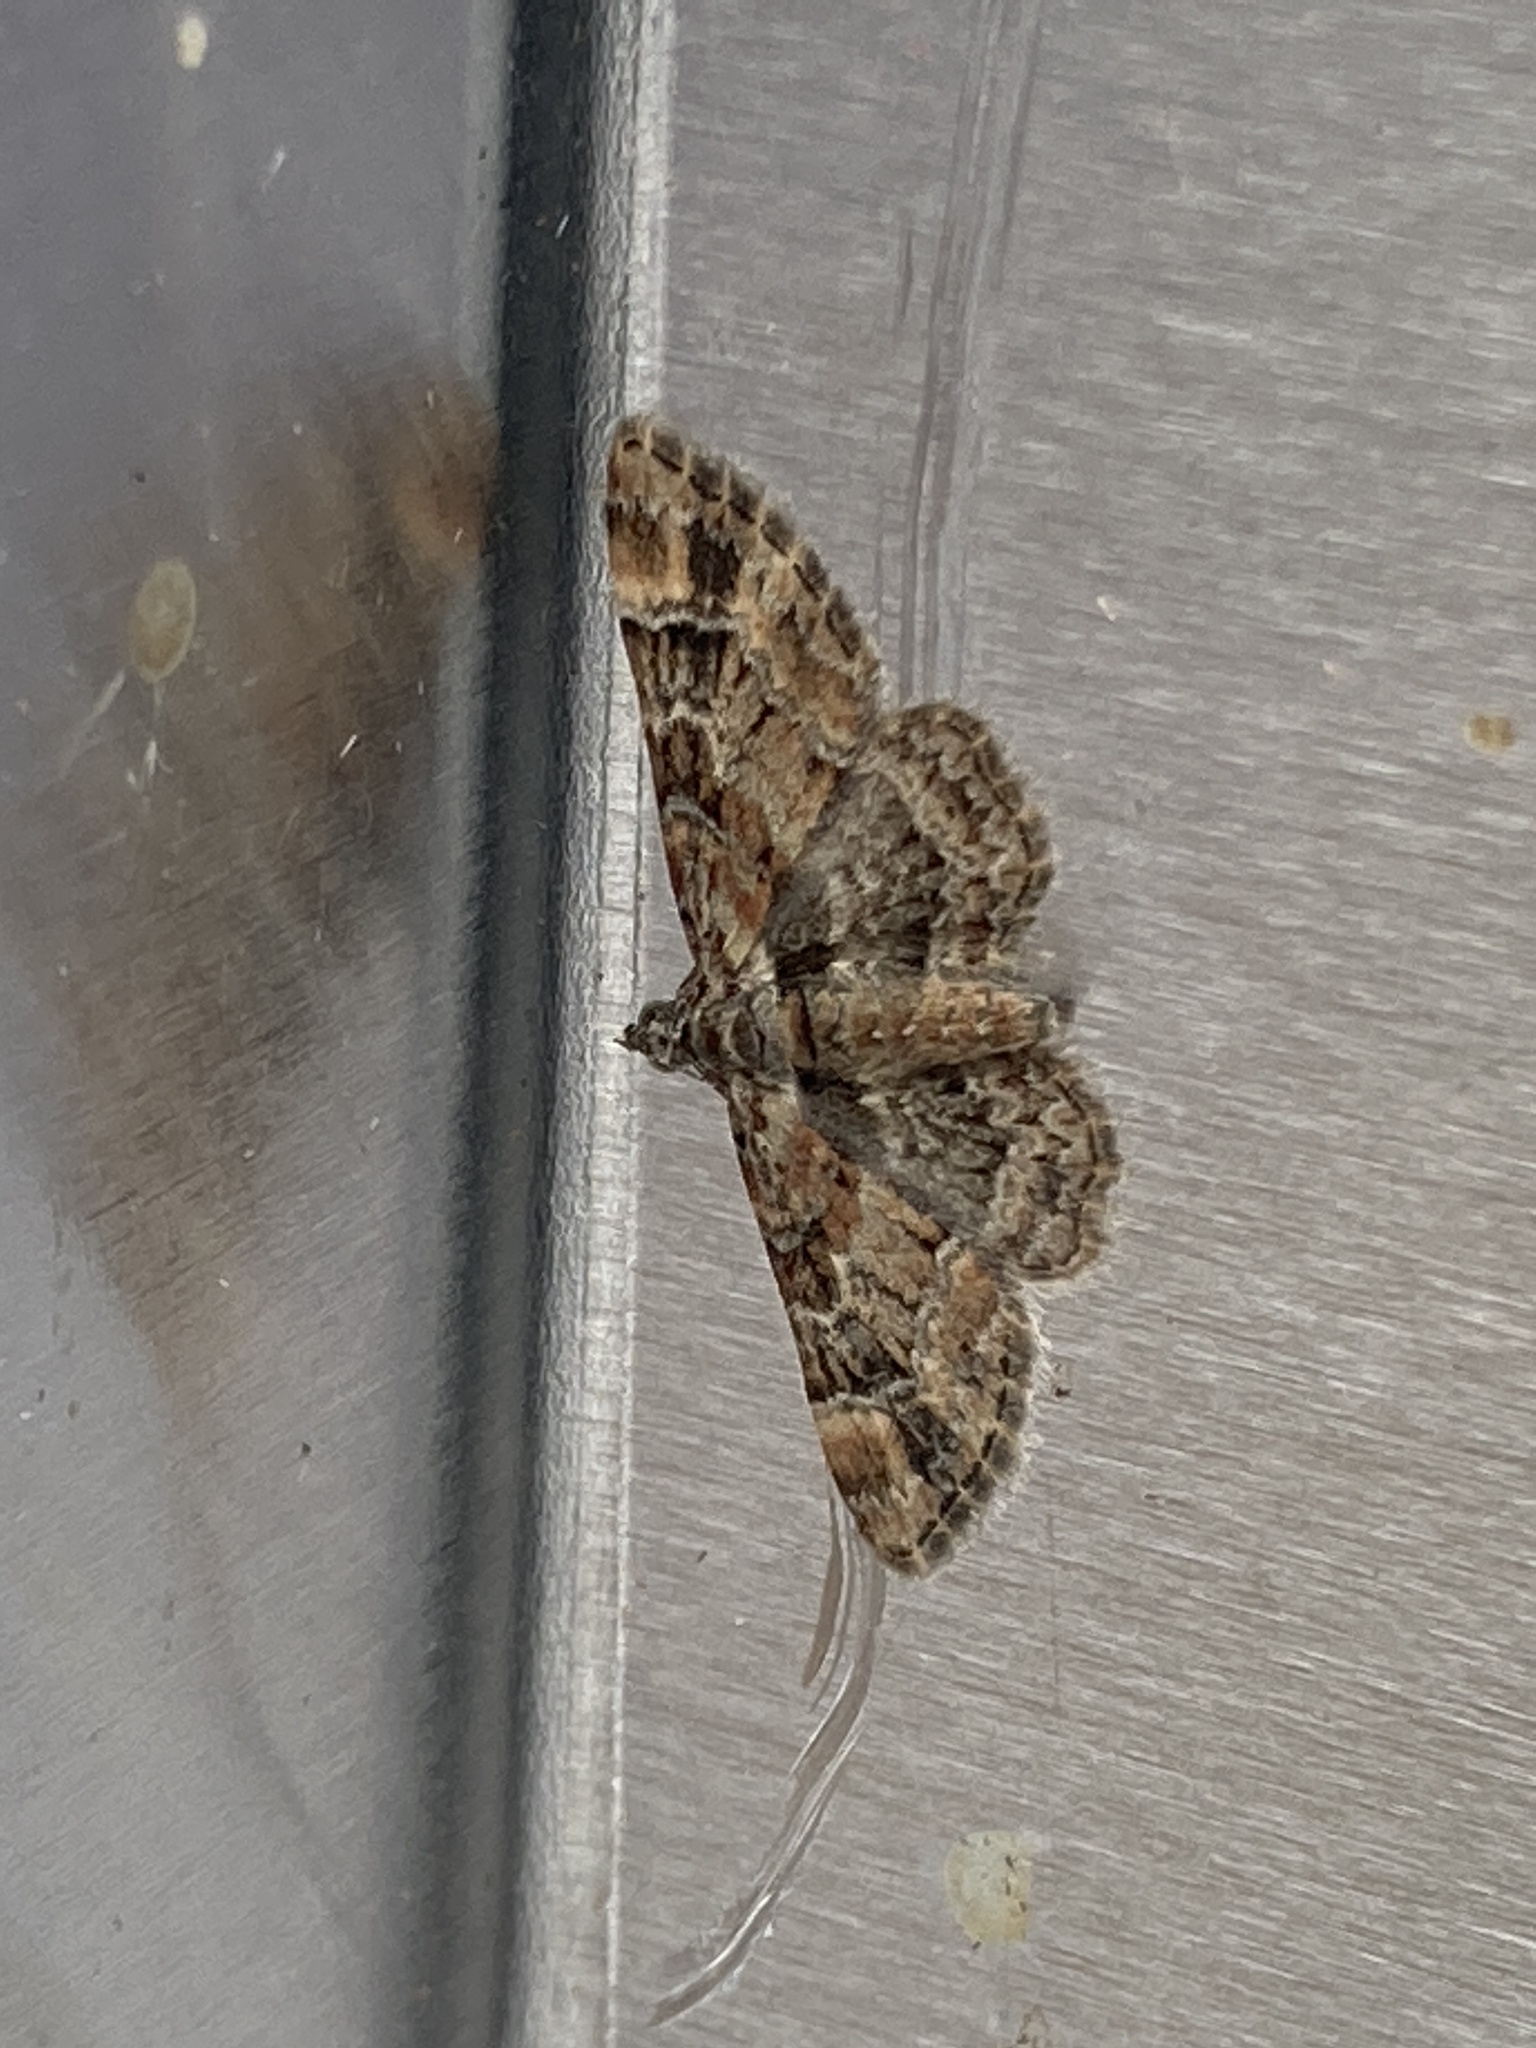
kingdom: Animalia
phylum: Arthropoda
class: Insecta
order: Lepidoptera
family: Geometridae
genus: Gymnoscelis
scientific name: Gymnoscelis rufifasciata
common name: Double-striped pug
